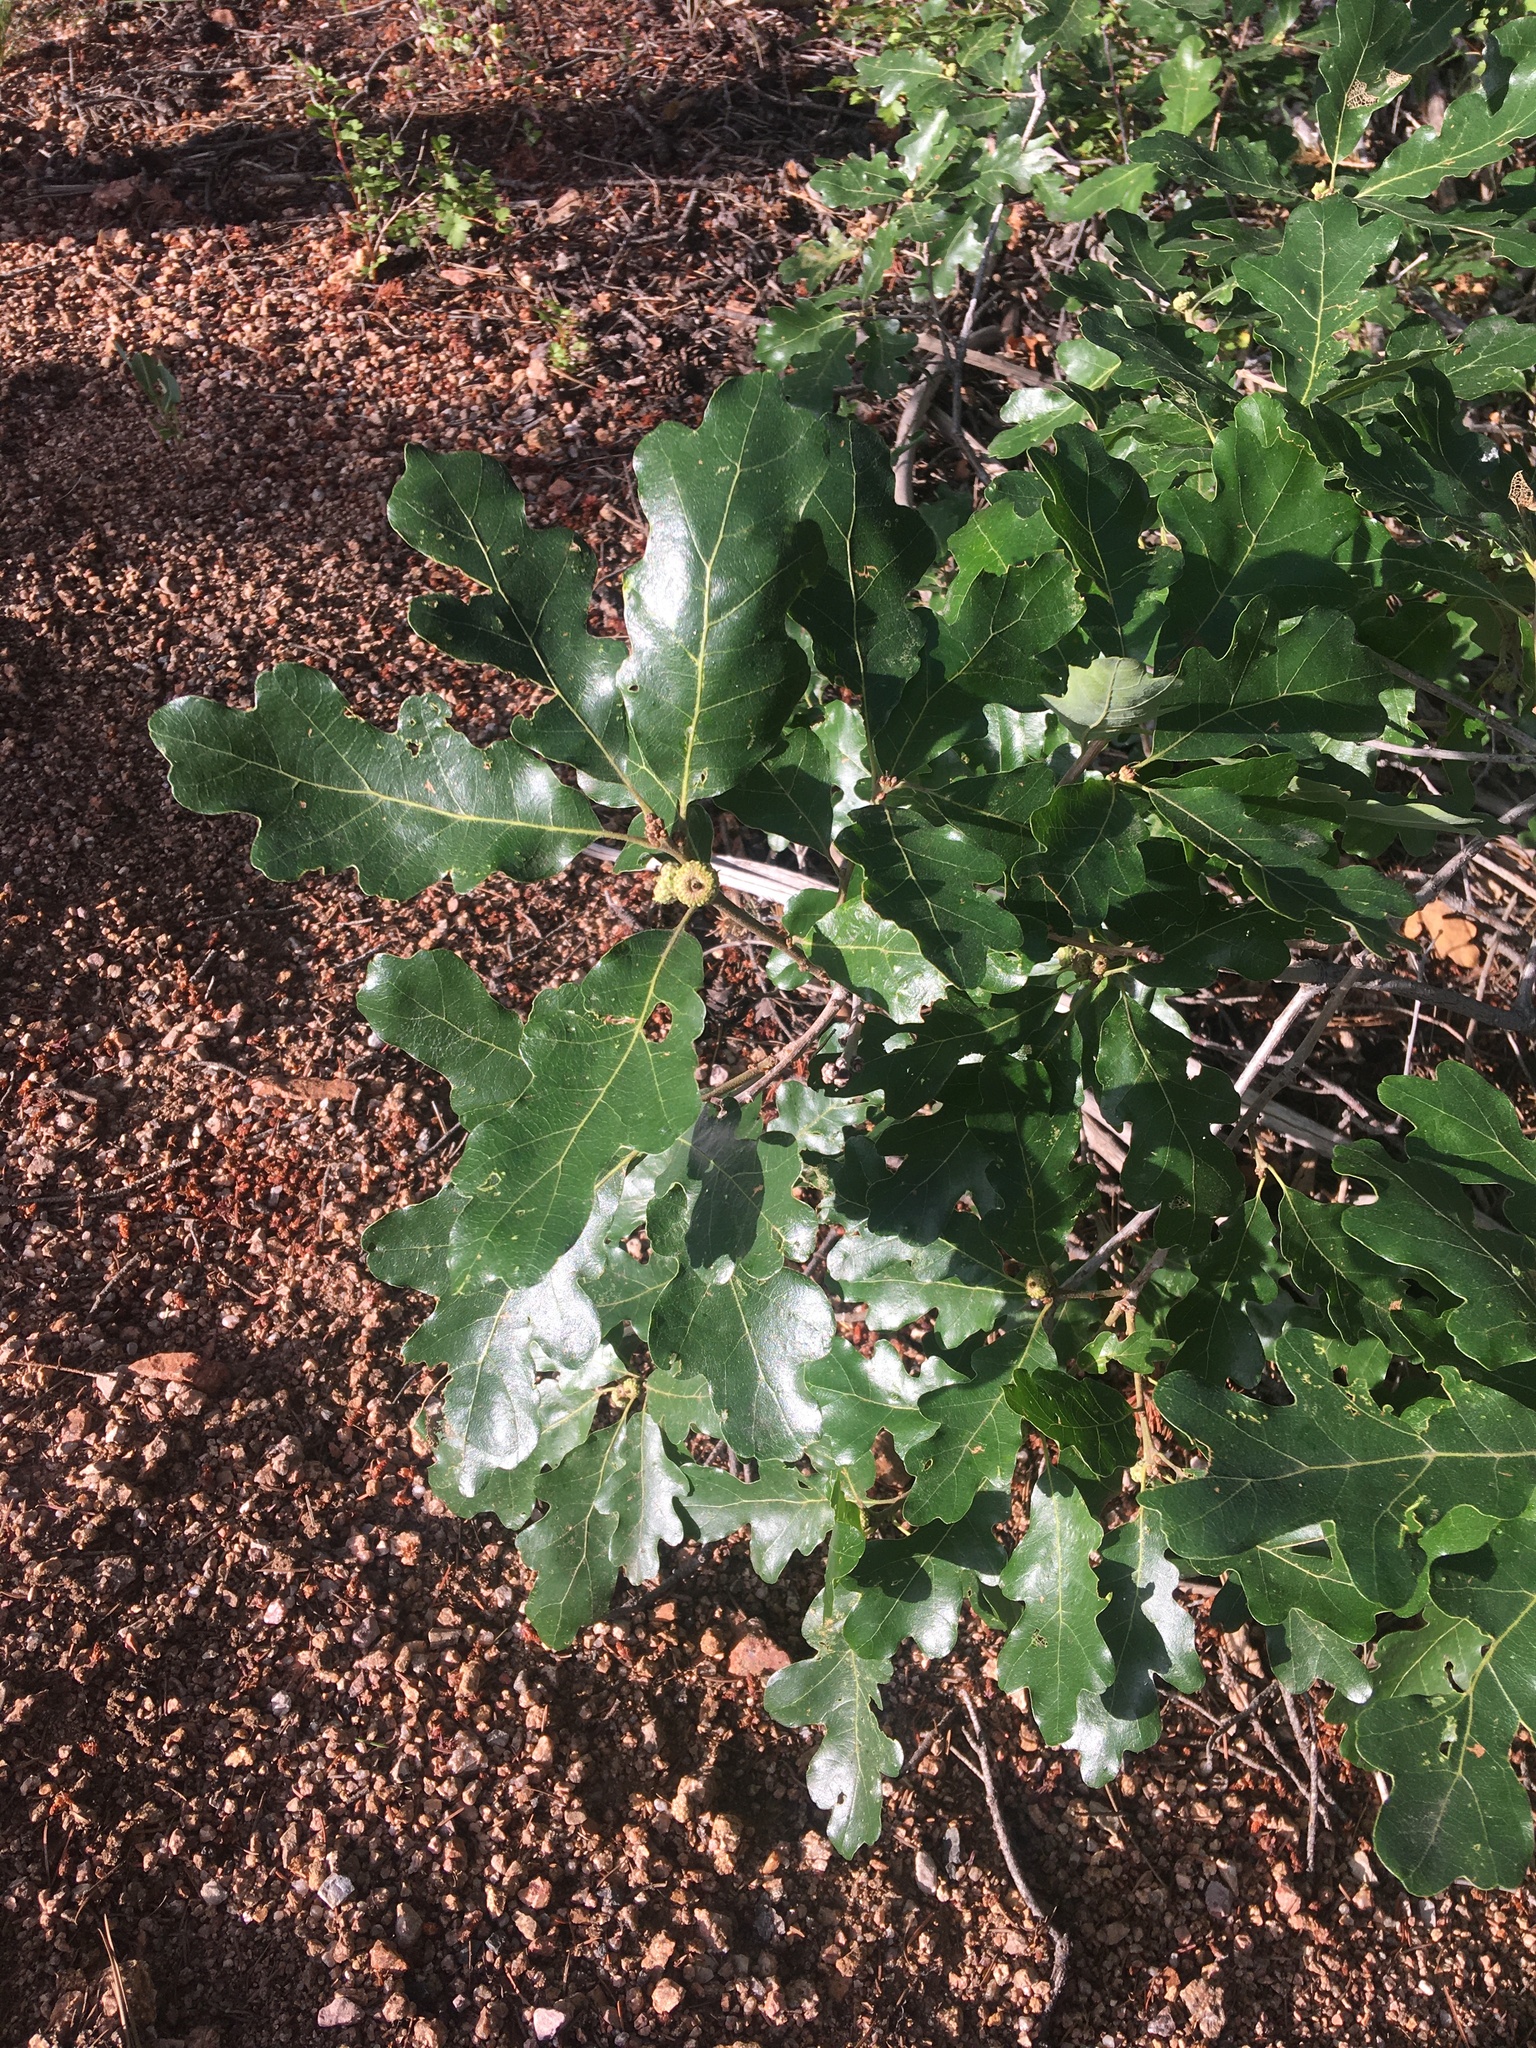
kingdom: Plantae
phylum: Tracheophyta
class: Magnoliopsida
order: Fagales
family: Fagaceae
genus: Quercus
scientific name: Quercus gambelii
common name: Gambel oak
